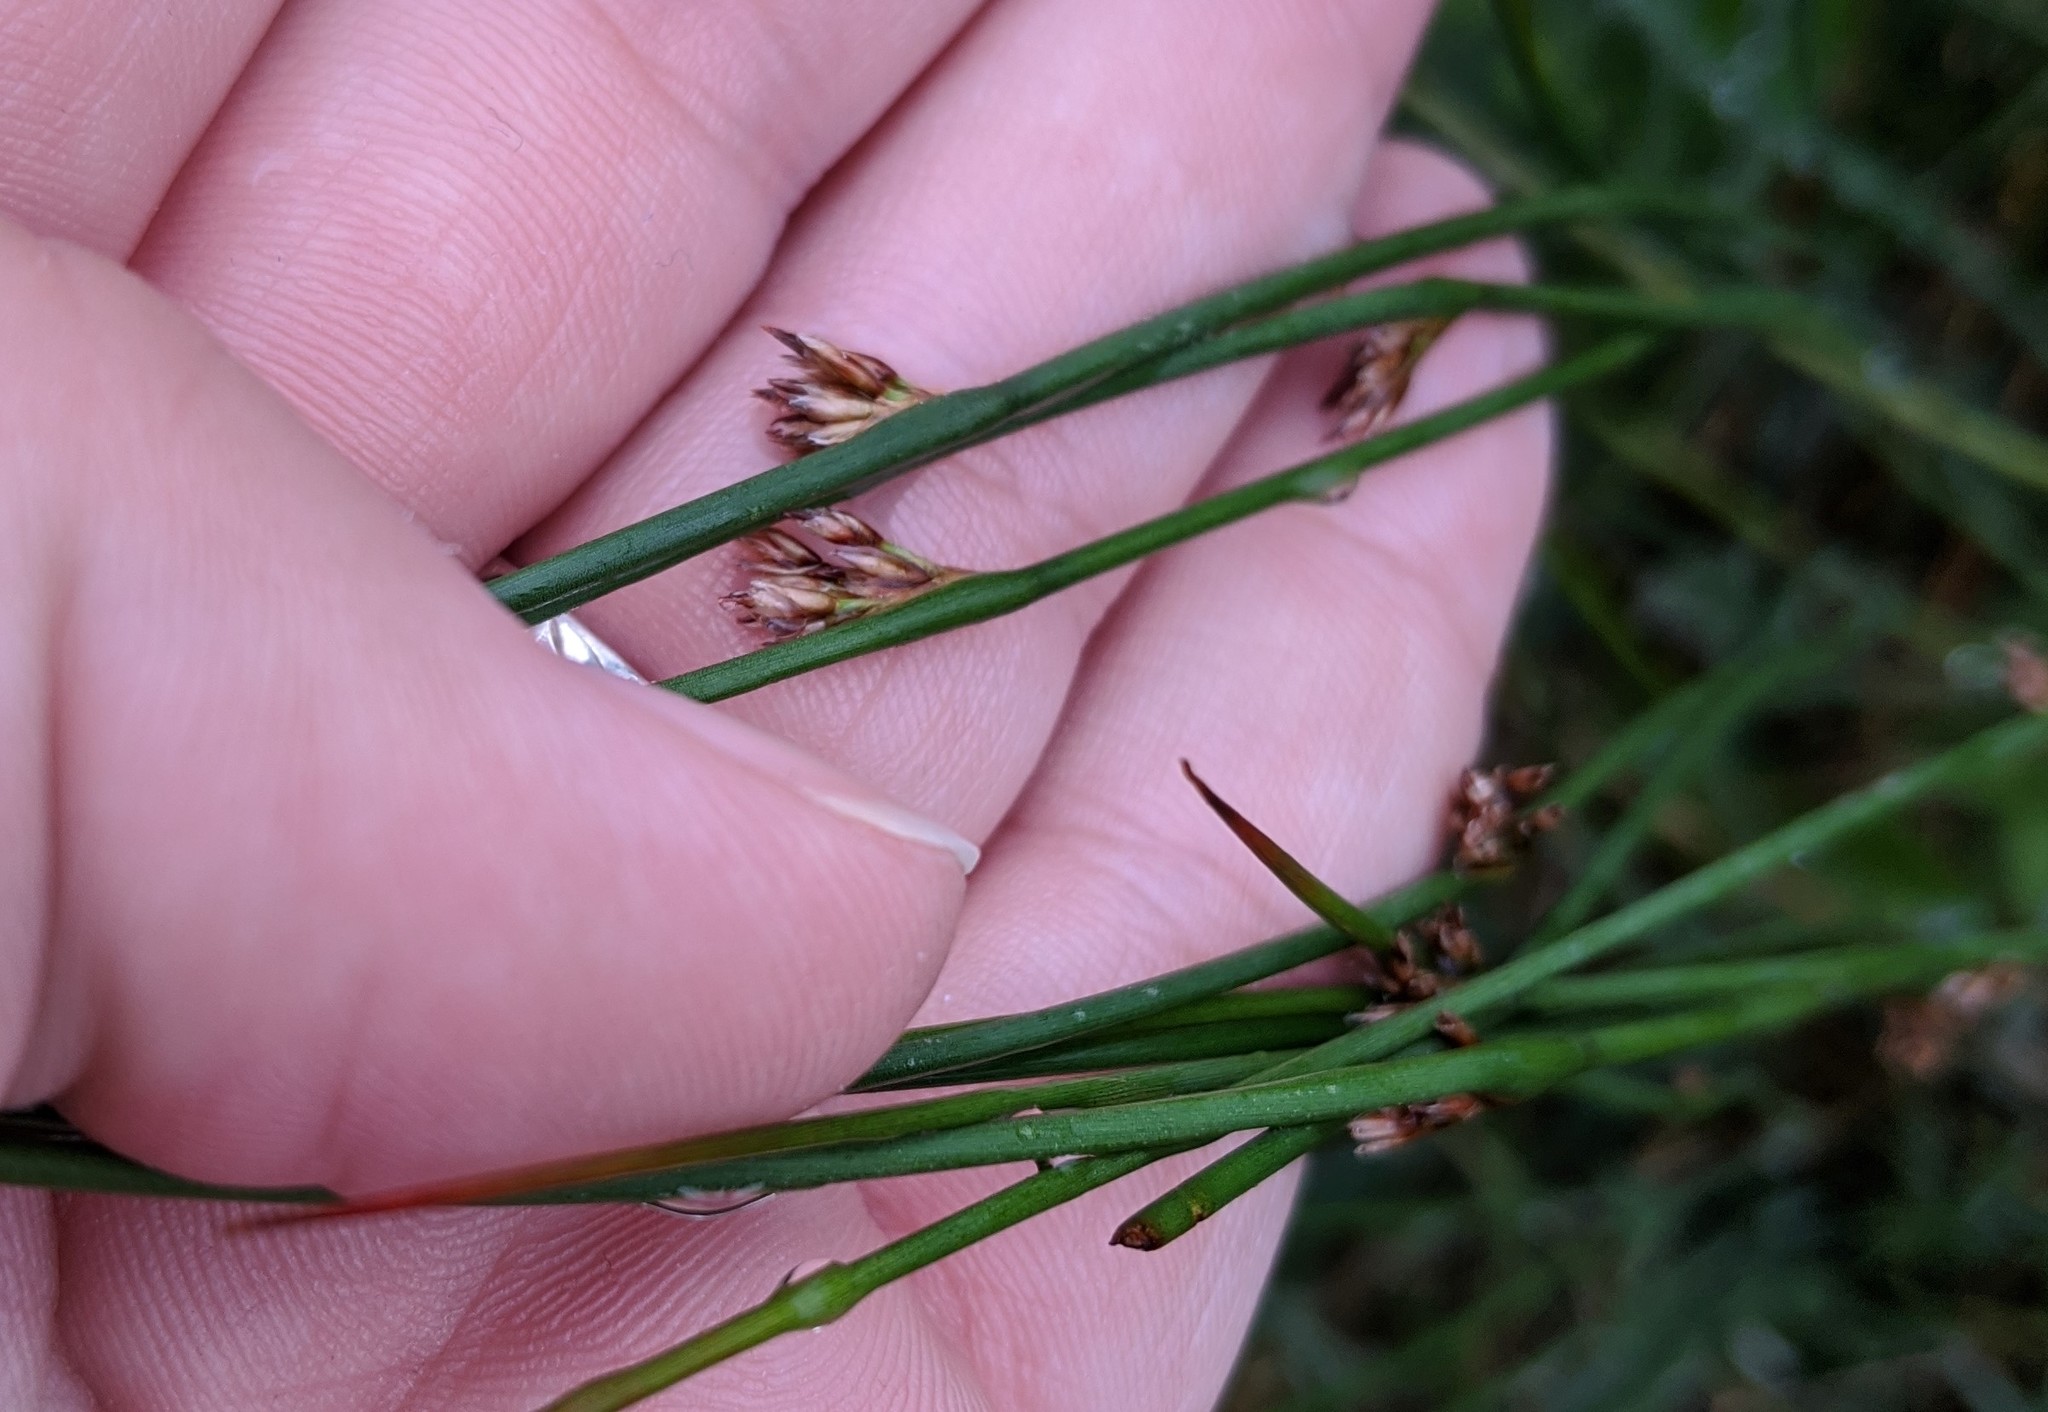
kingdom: Plantae
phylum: Tracheophyta
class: Liliopsida
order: Poales
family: Juncaceae
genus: Juncus
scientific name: Juncus balticus
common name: Baltic rush
